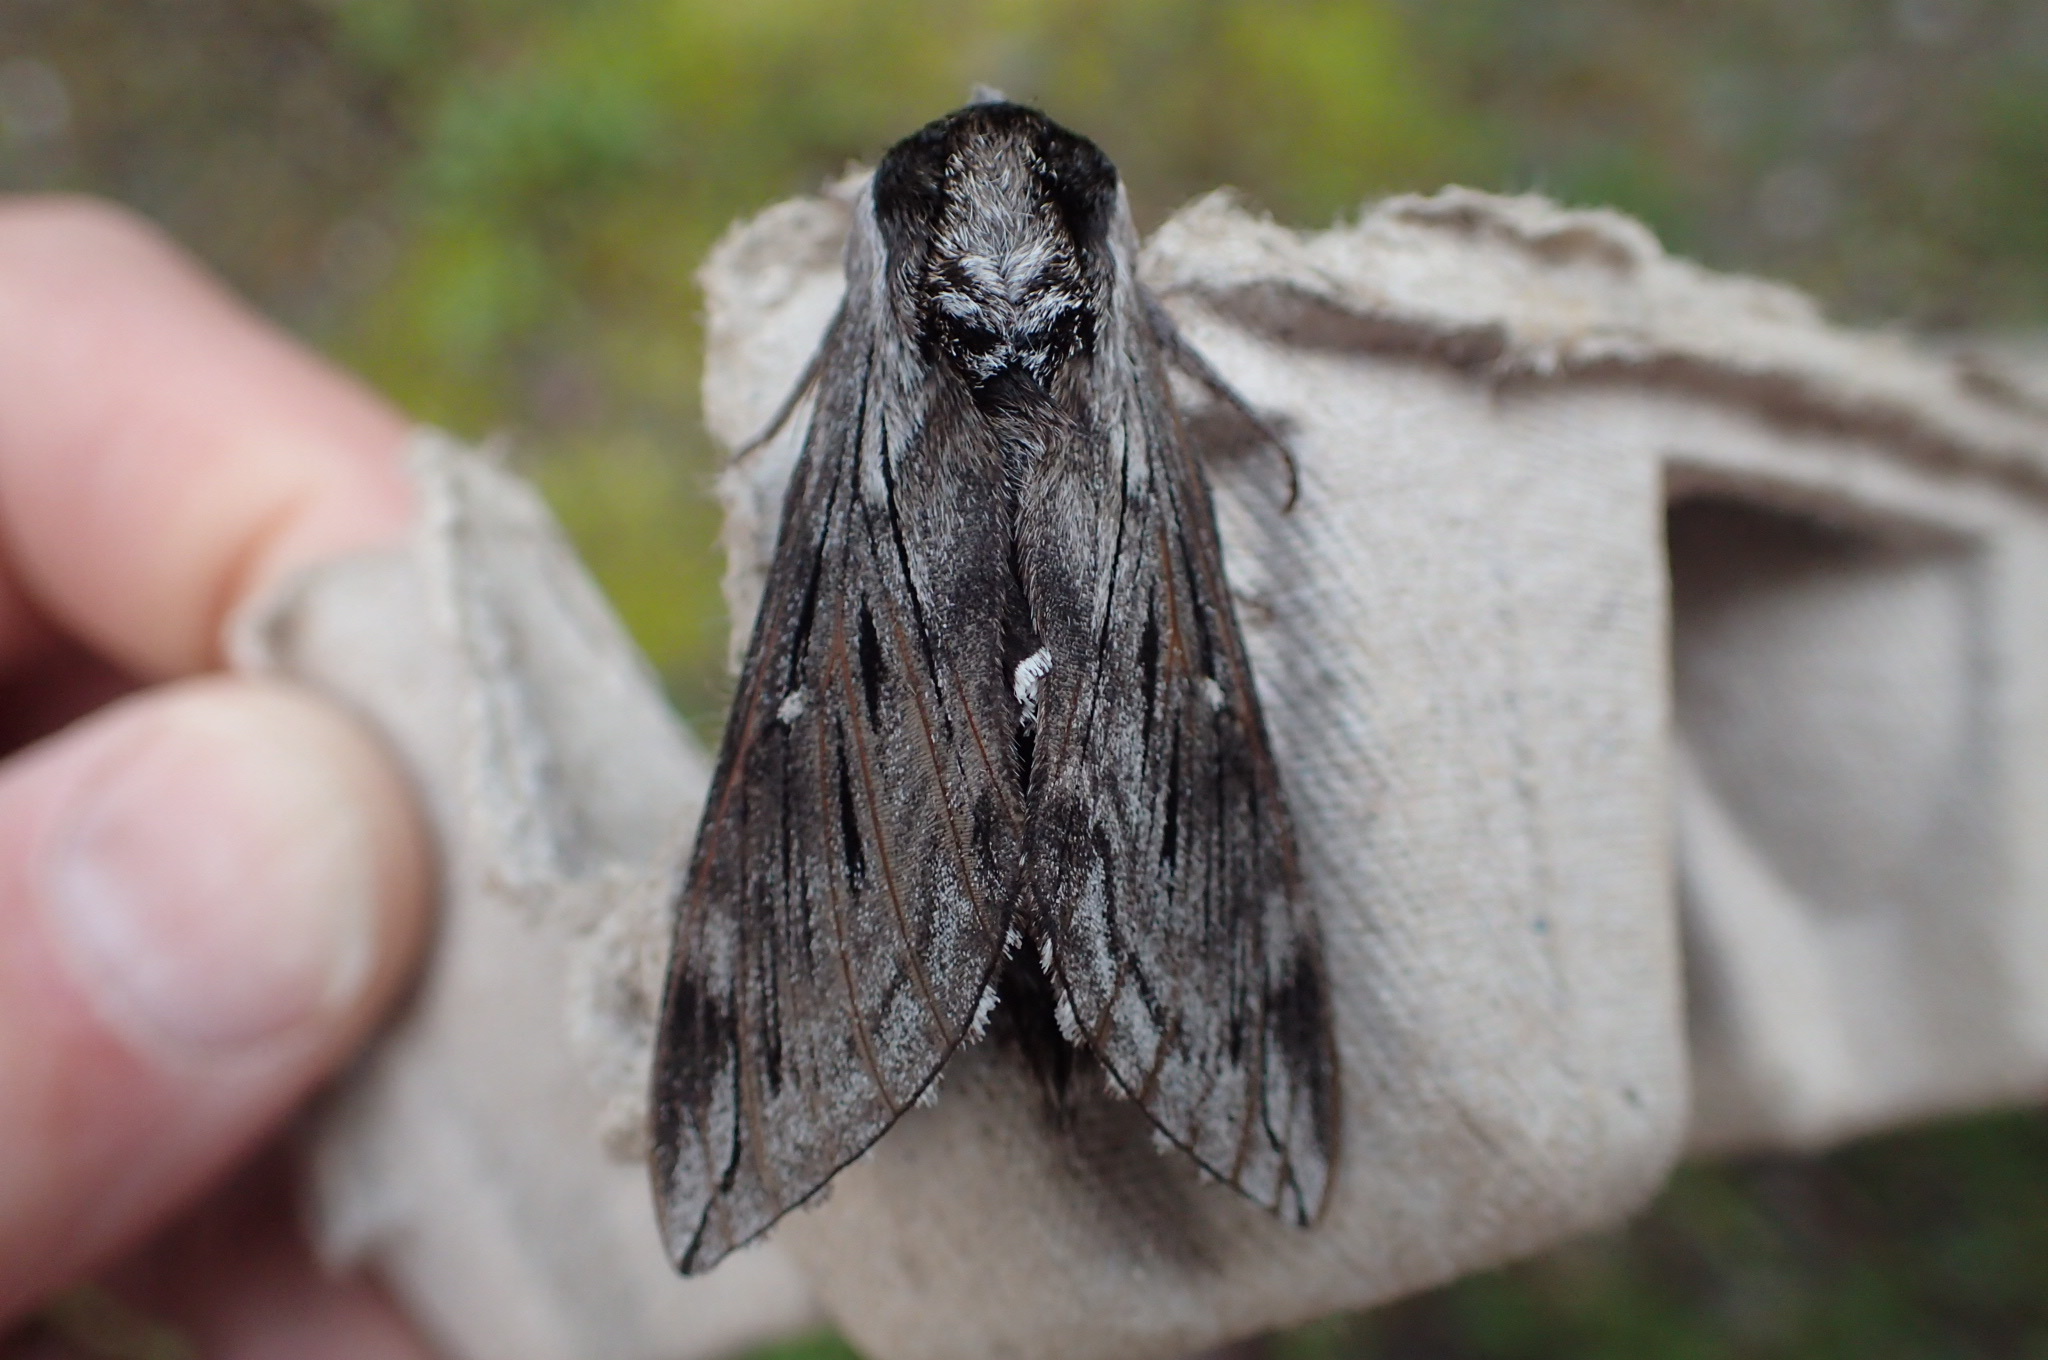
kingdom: Animalia
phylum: Arthropoda
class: Insecta
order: Lepidoptera
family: Sphingidae
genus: Sphinx
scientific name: Sphinx poecila
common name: Northern apple sphinx
